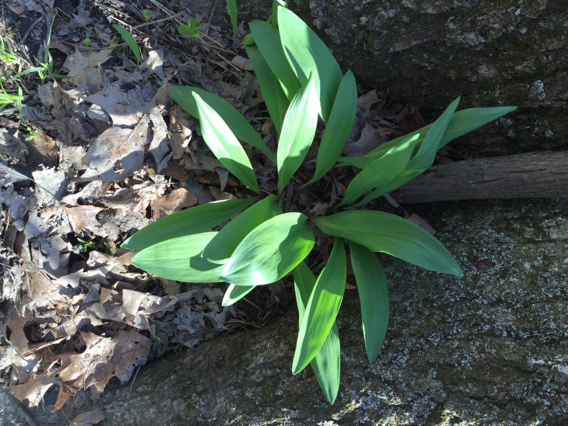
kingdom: Plantae
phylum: Tracheophyta
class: Liliopsida
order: Asparagales
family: Amaryllidaceae
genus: Allium
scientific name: Allium tricoccum
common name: Ramp
